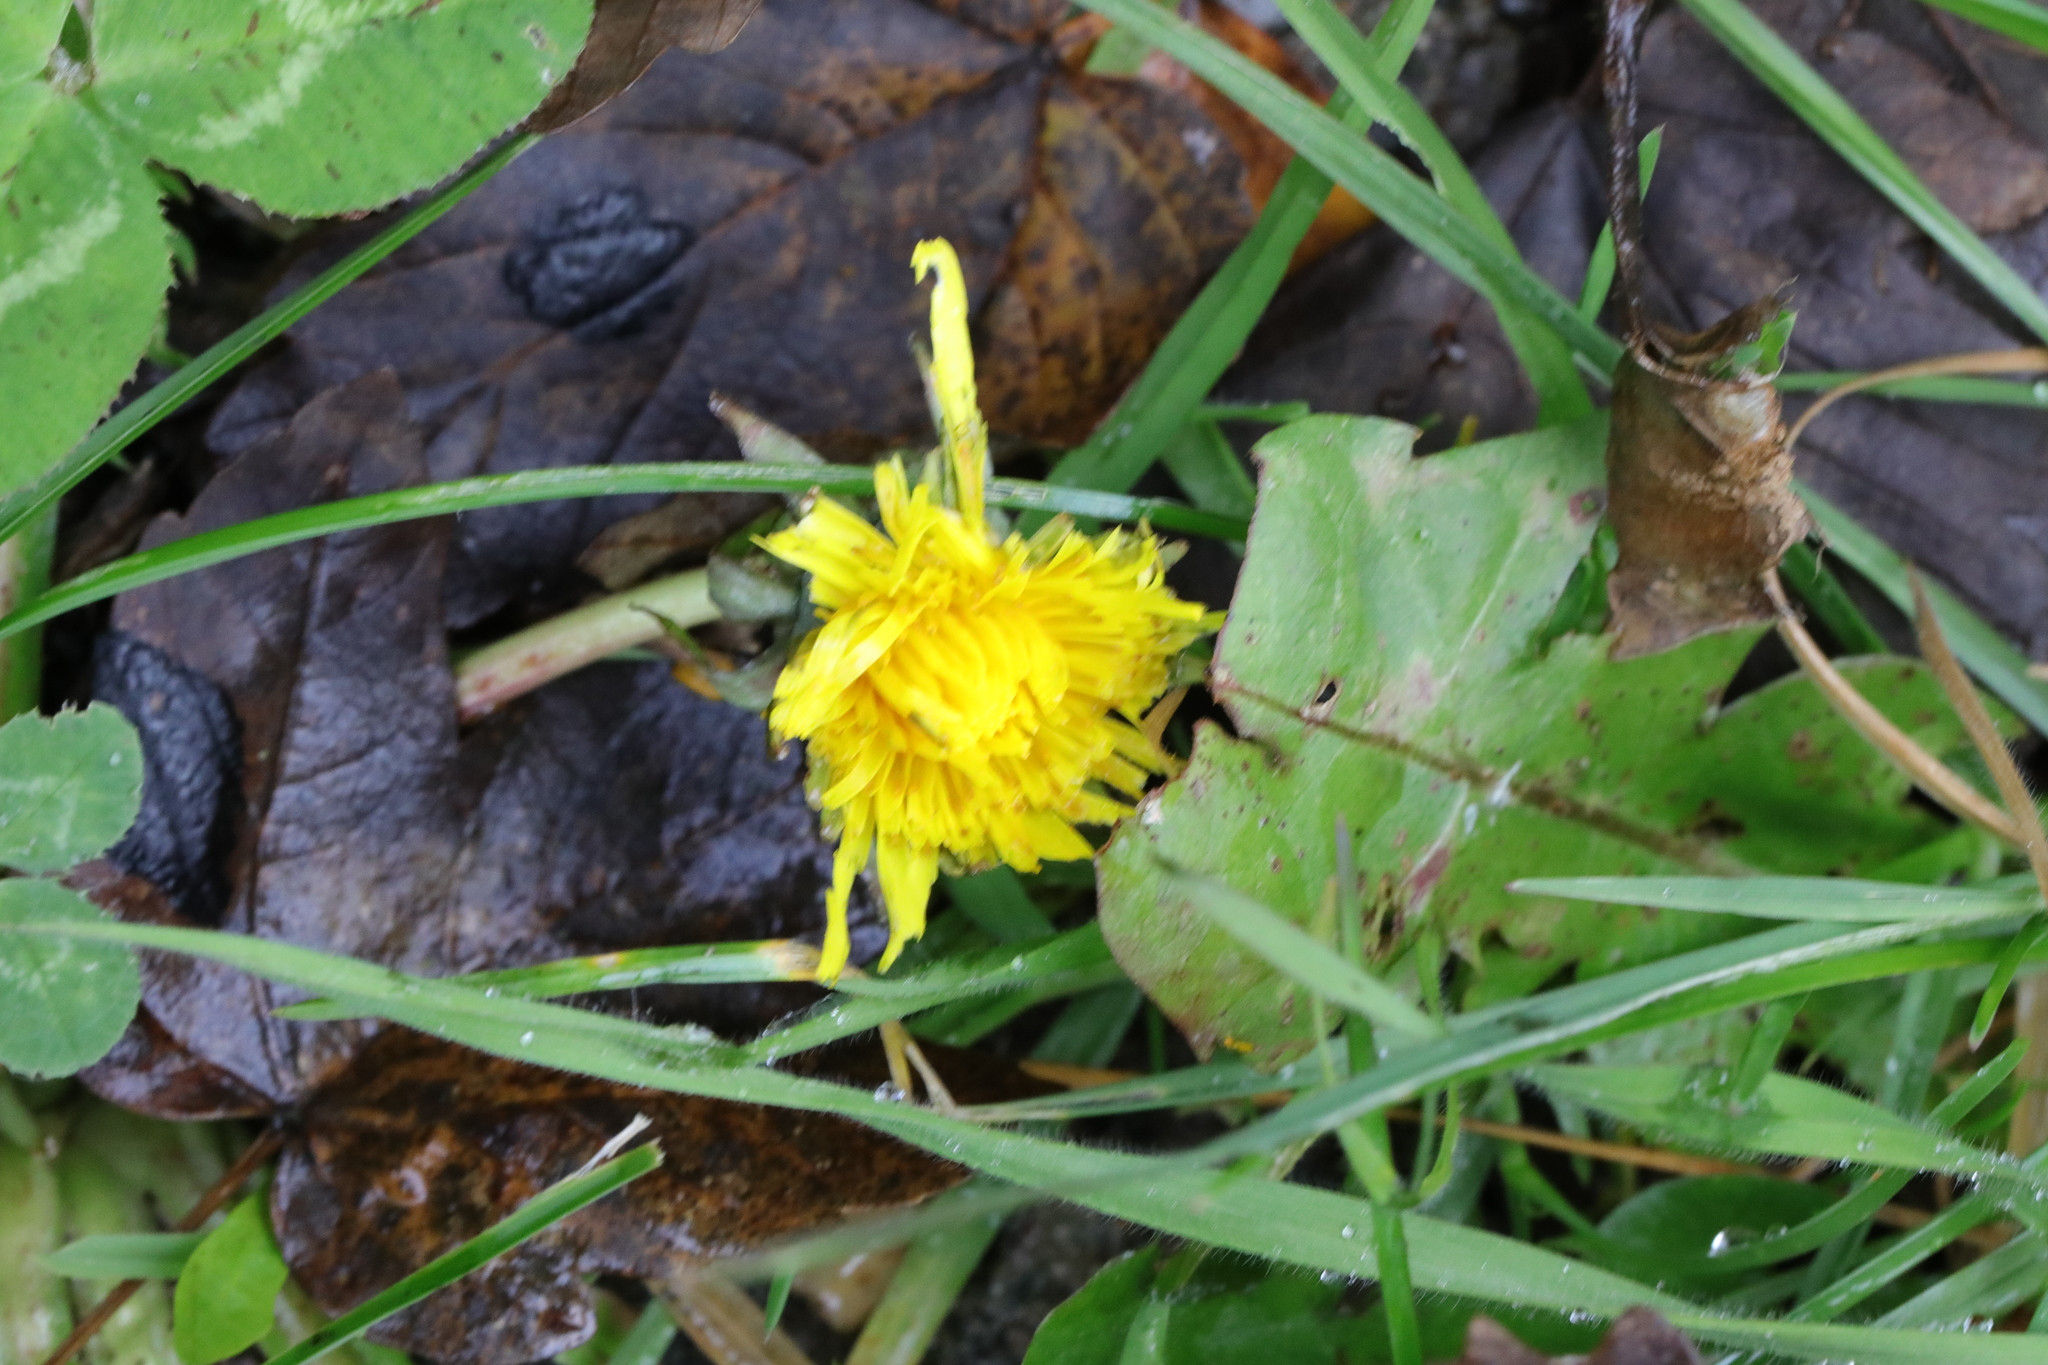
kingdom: Plantae
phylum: Tracheophyta
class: Magnoliopsida
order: Asterales
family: Asteraceae
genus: Taraxacum
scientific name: Taraxacum officinale
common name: Common dandelion
